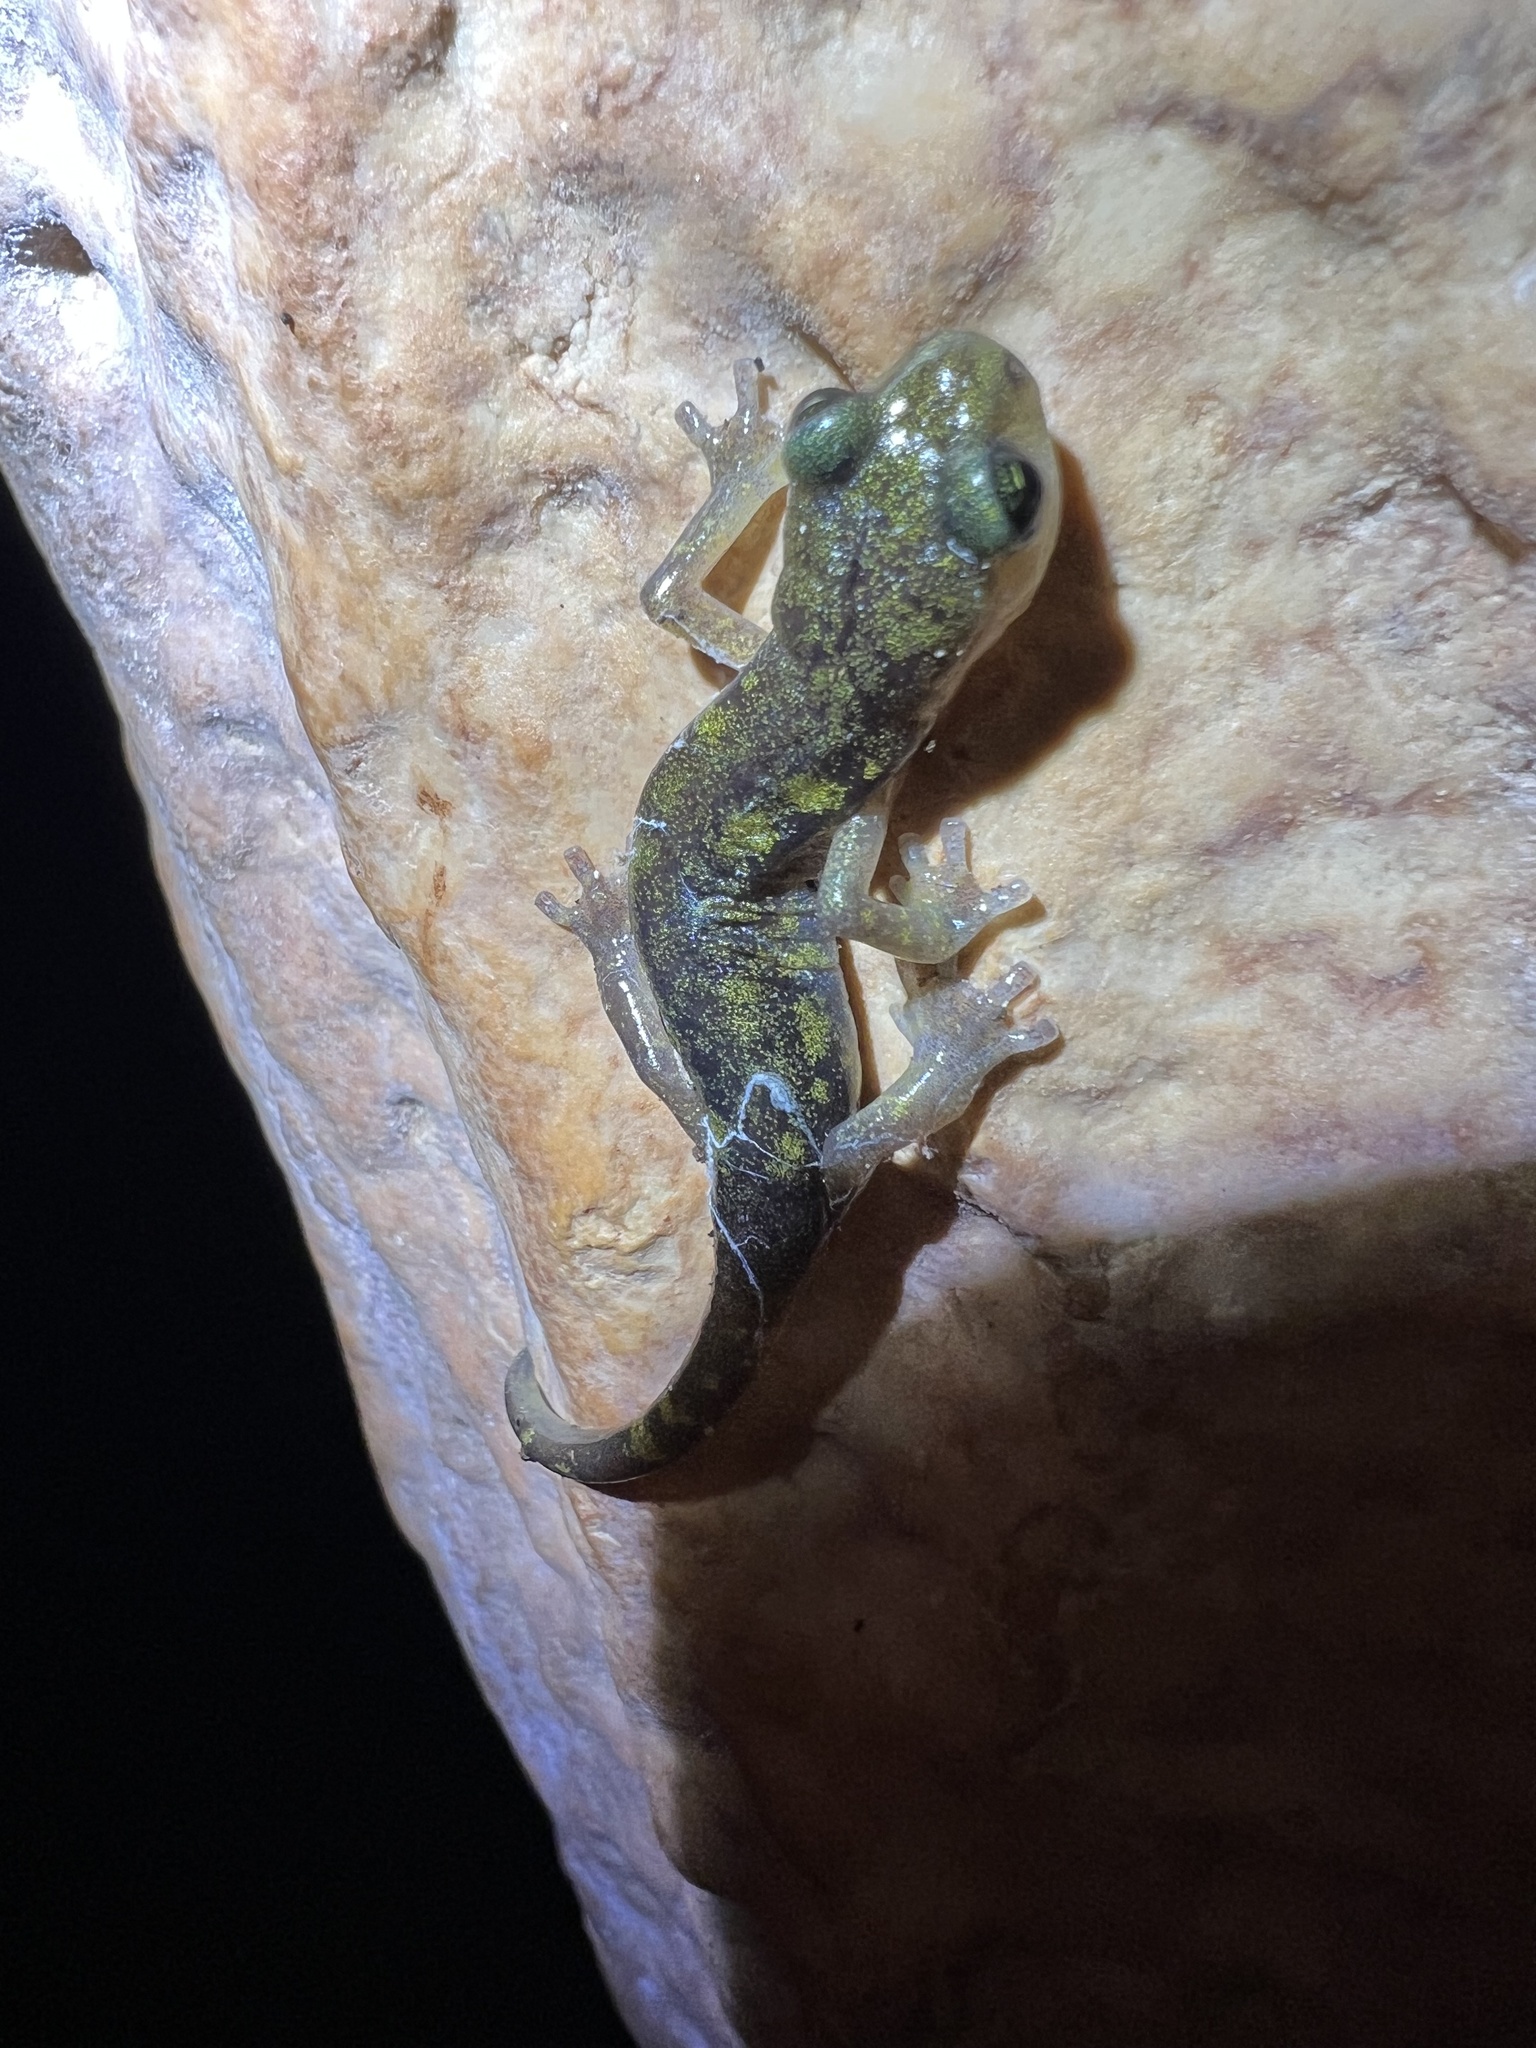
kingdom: Animalia
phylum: Chordata
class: Amphibia
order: Caudata
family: Plethodontidae
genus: Speleomantes
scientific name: Speleomantes imperialis
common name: Imperial cave salamander
